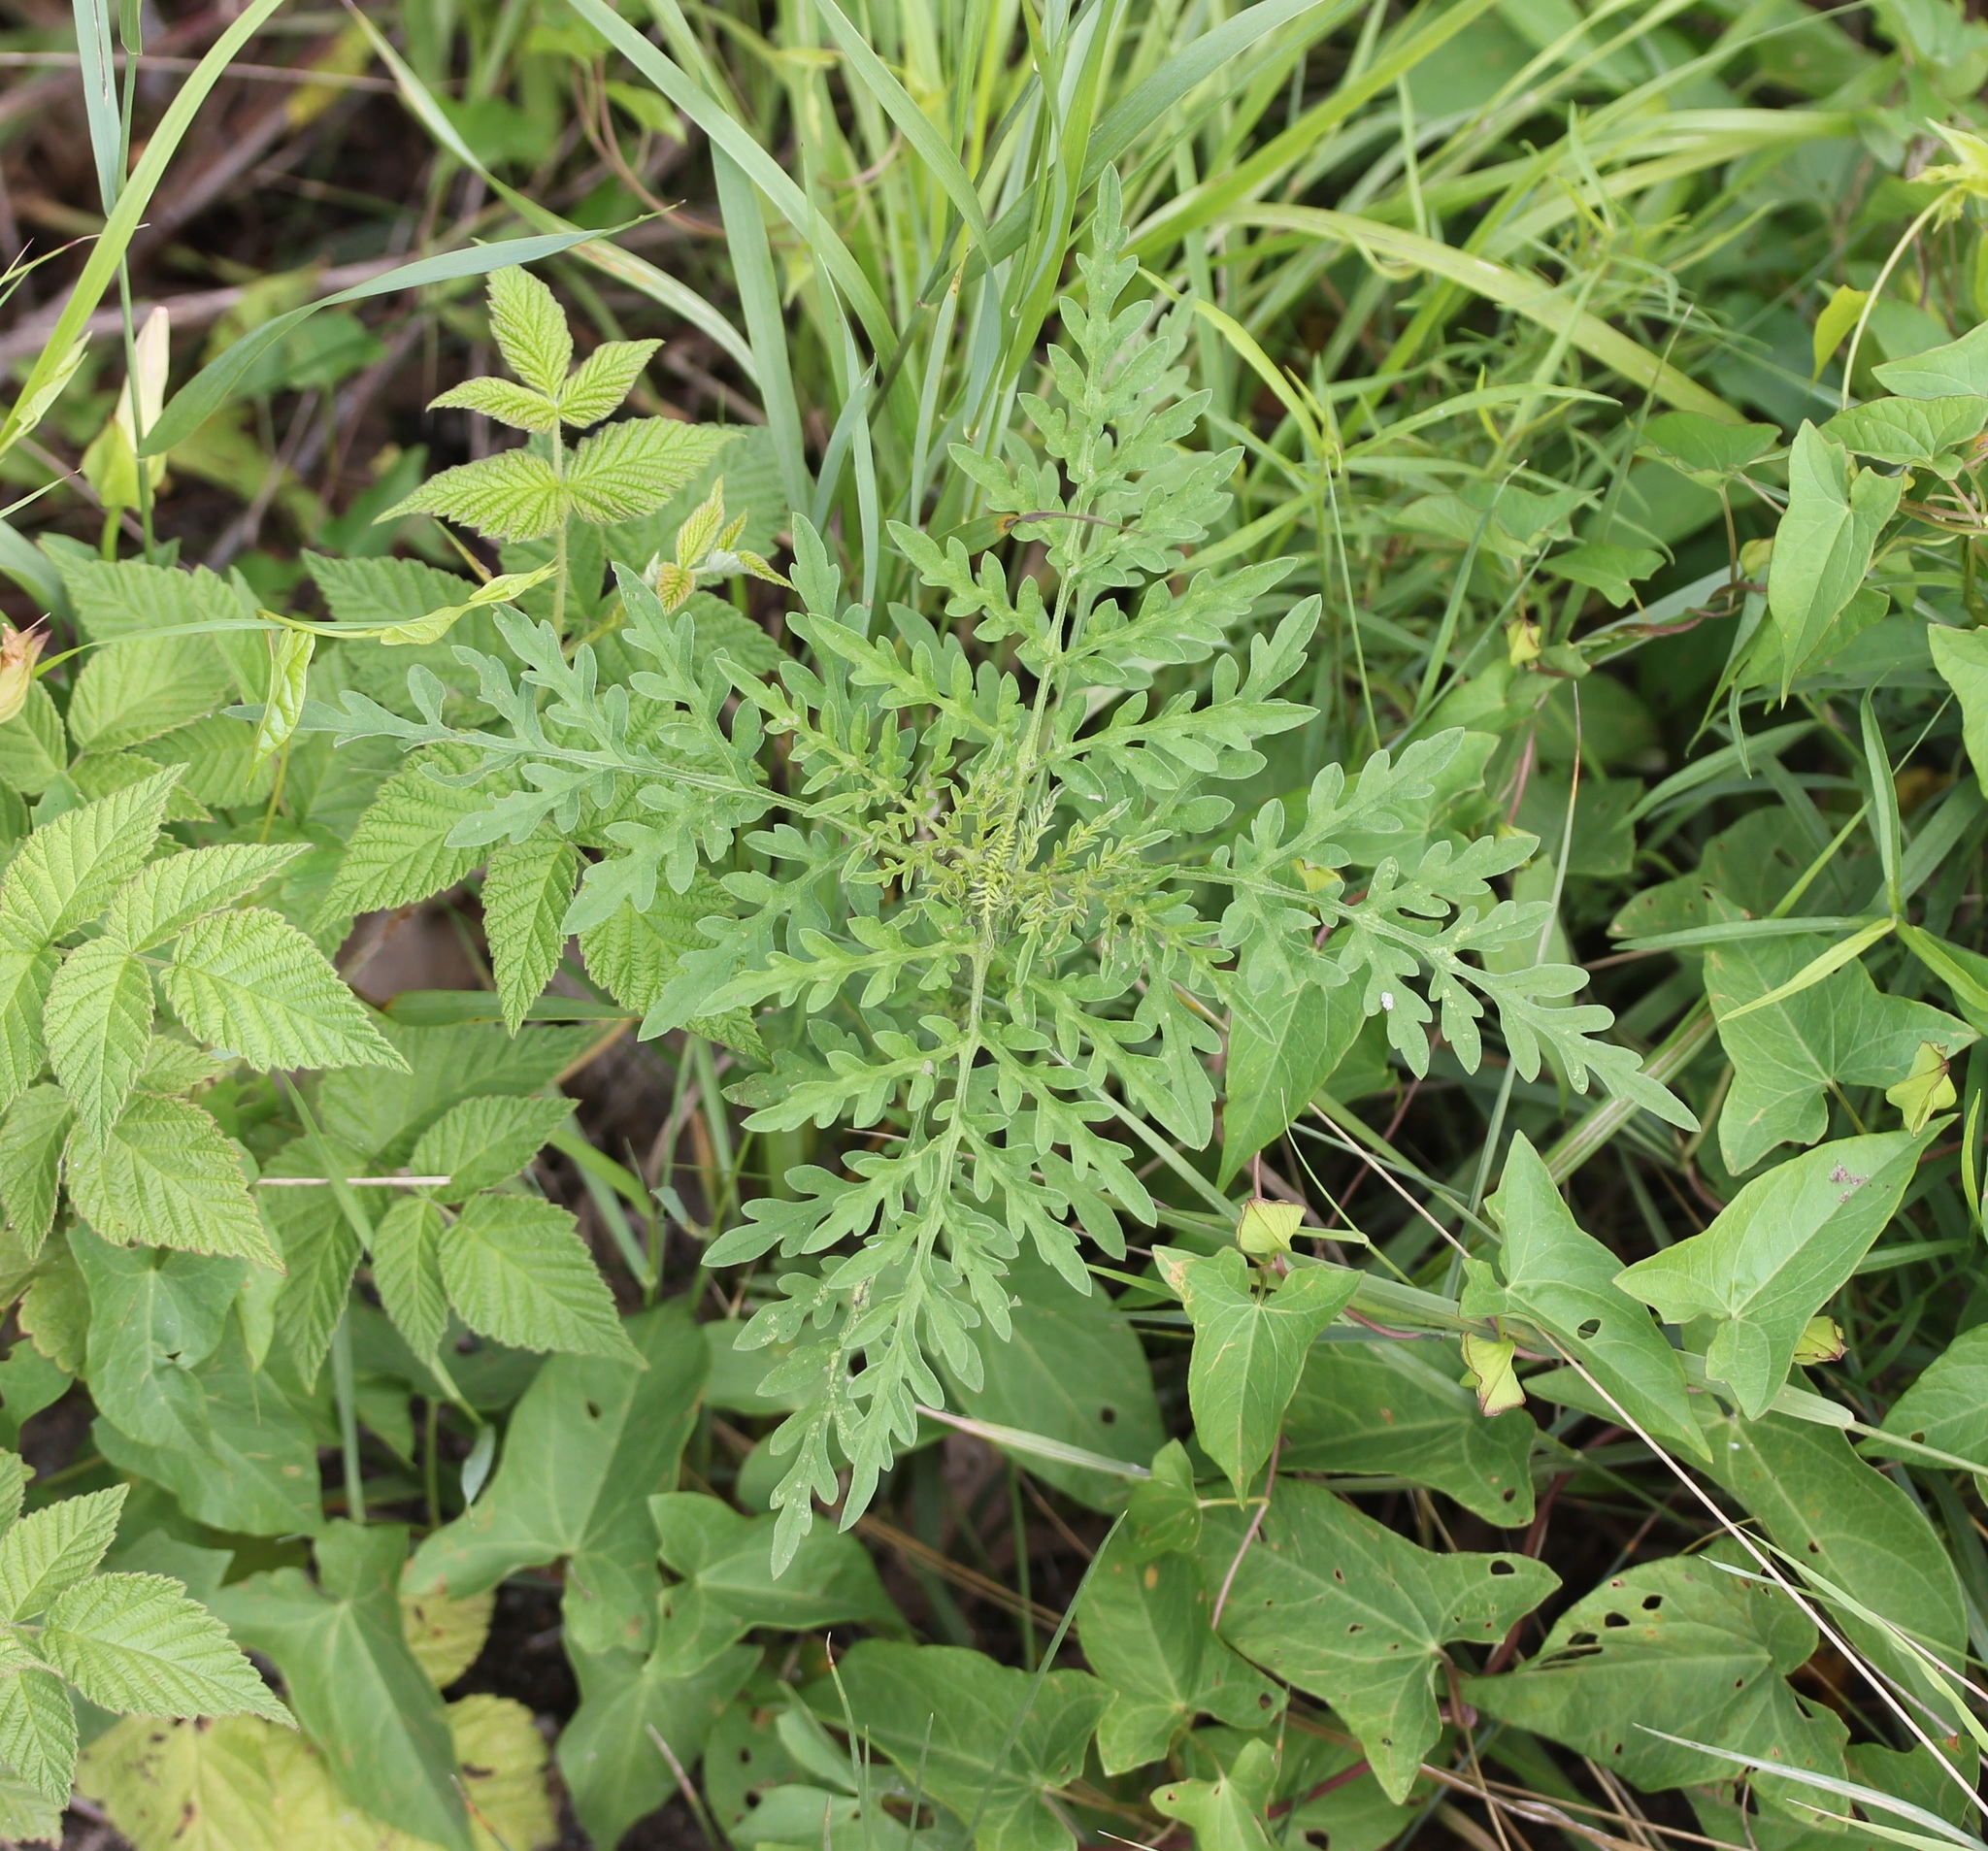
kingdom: Plantae
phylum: Tracheophyta
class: Magnoliopsida
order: Asterales
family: Asteraceae
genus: Ambrosia
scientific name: Ambrosia artemisiifolia
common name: Annual ragweed
